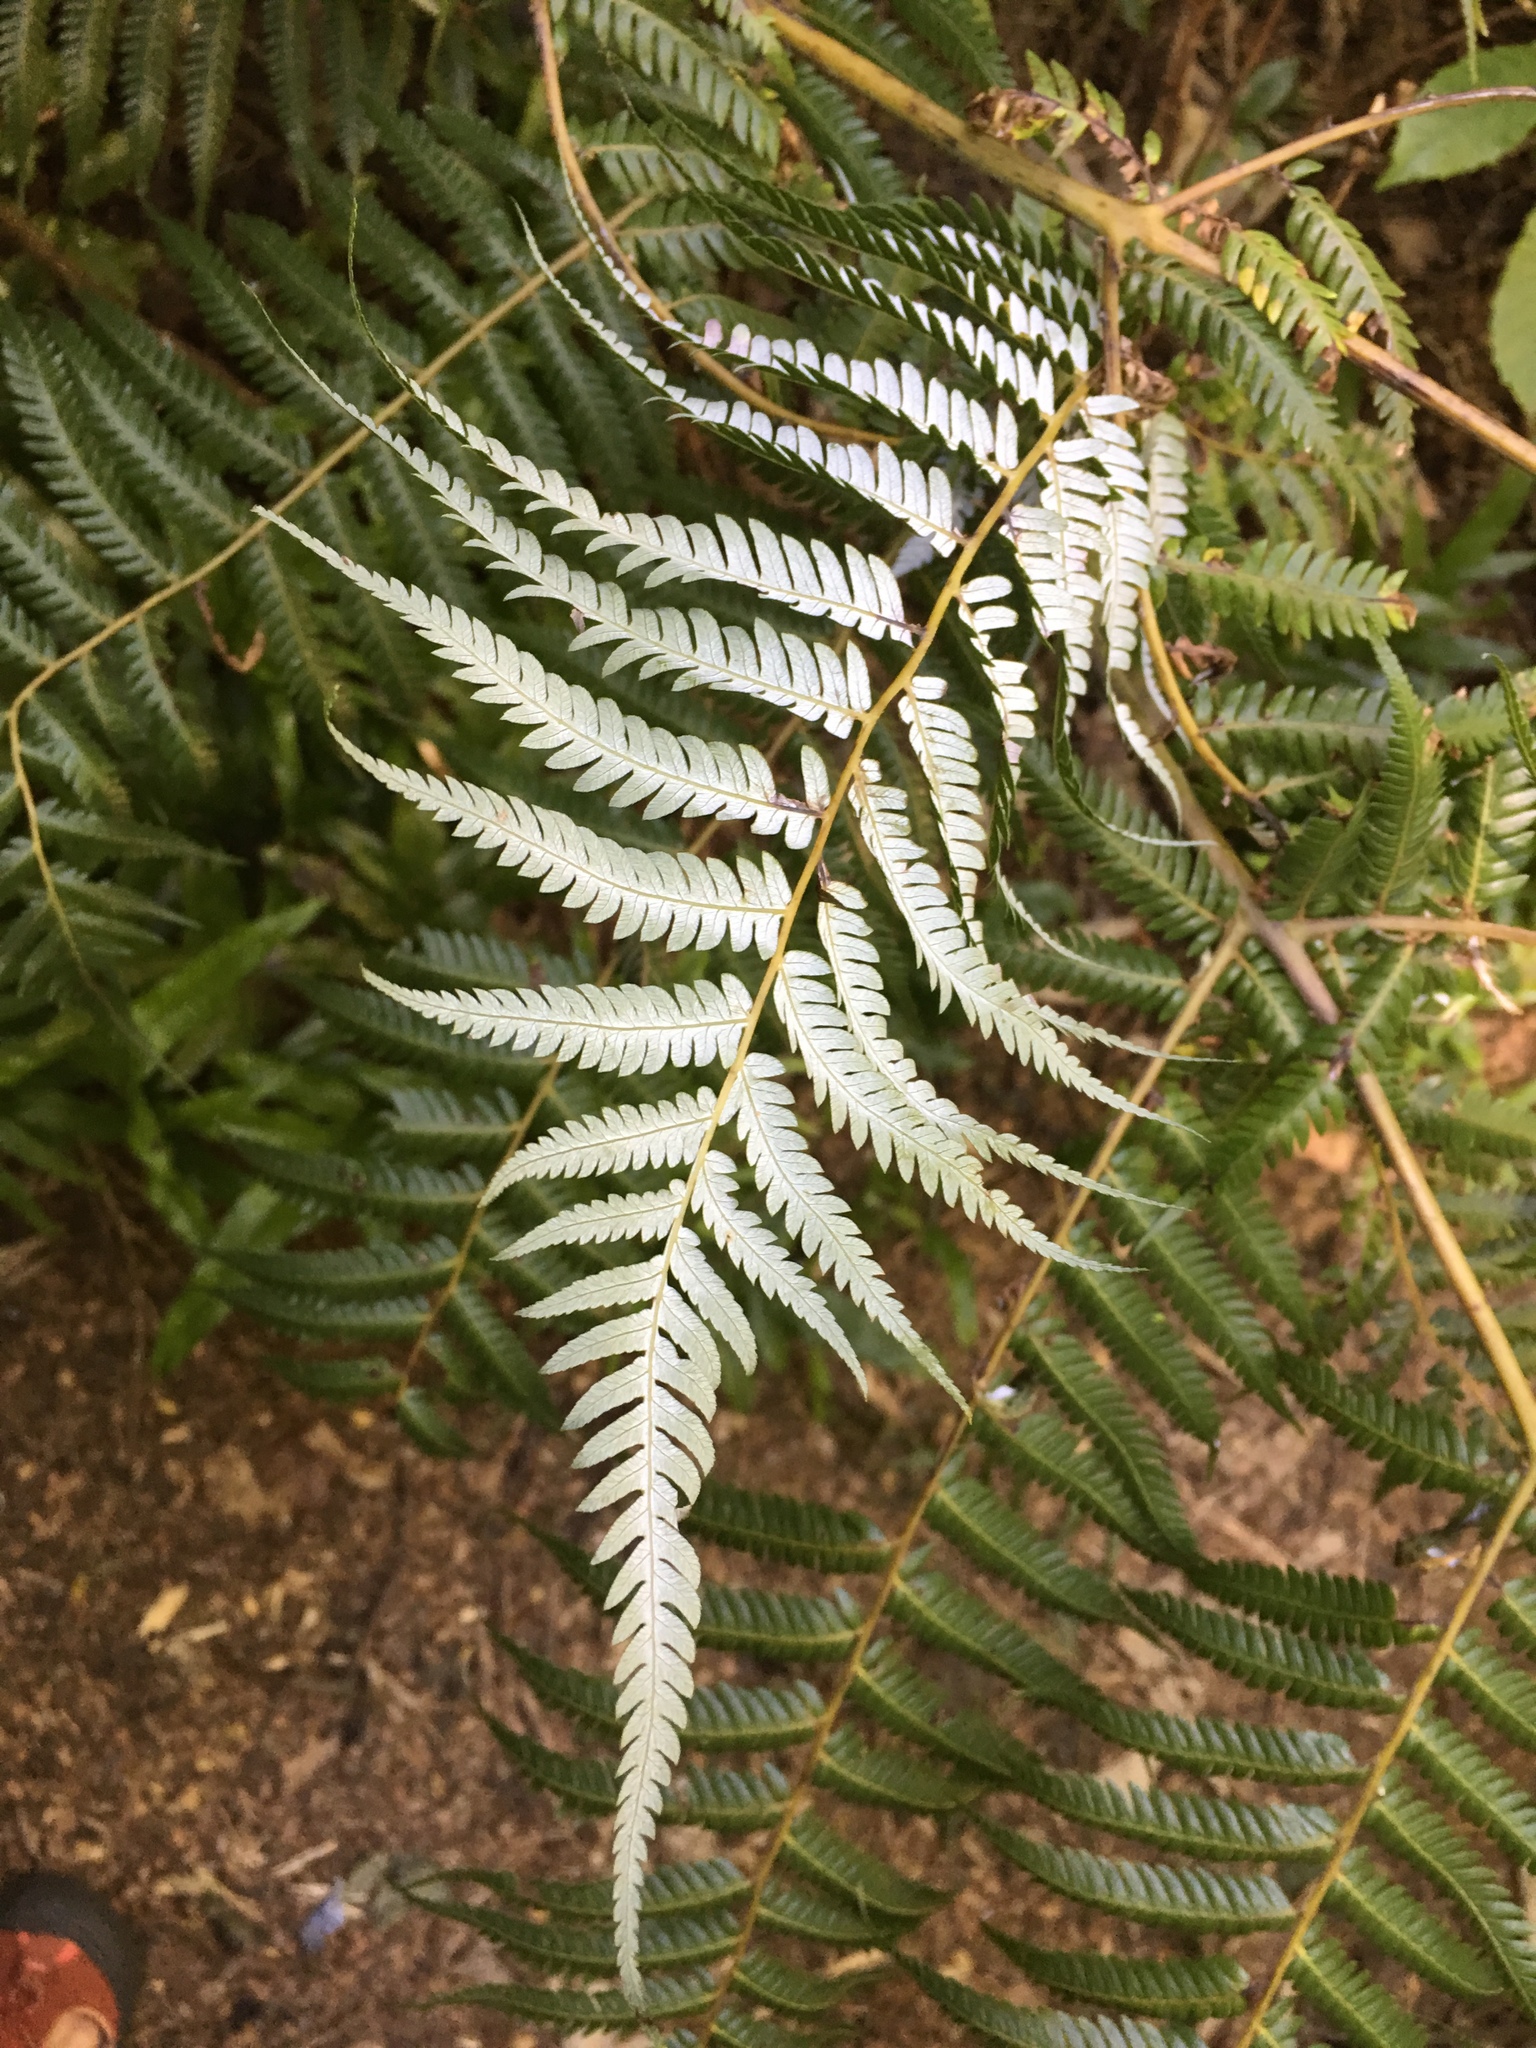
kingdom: Plantae
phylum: Tracheophyta
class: Polypodiopsida
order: Cyatheales
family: Cyatheaceae
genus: Alsophila
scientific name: Alsophila dealbata
